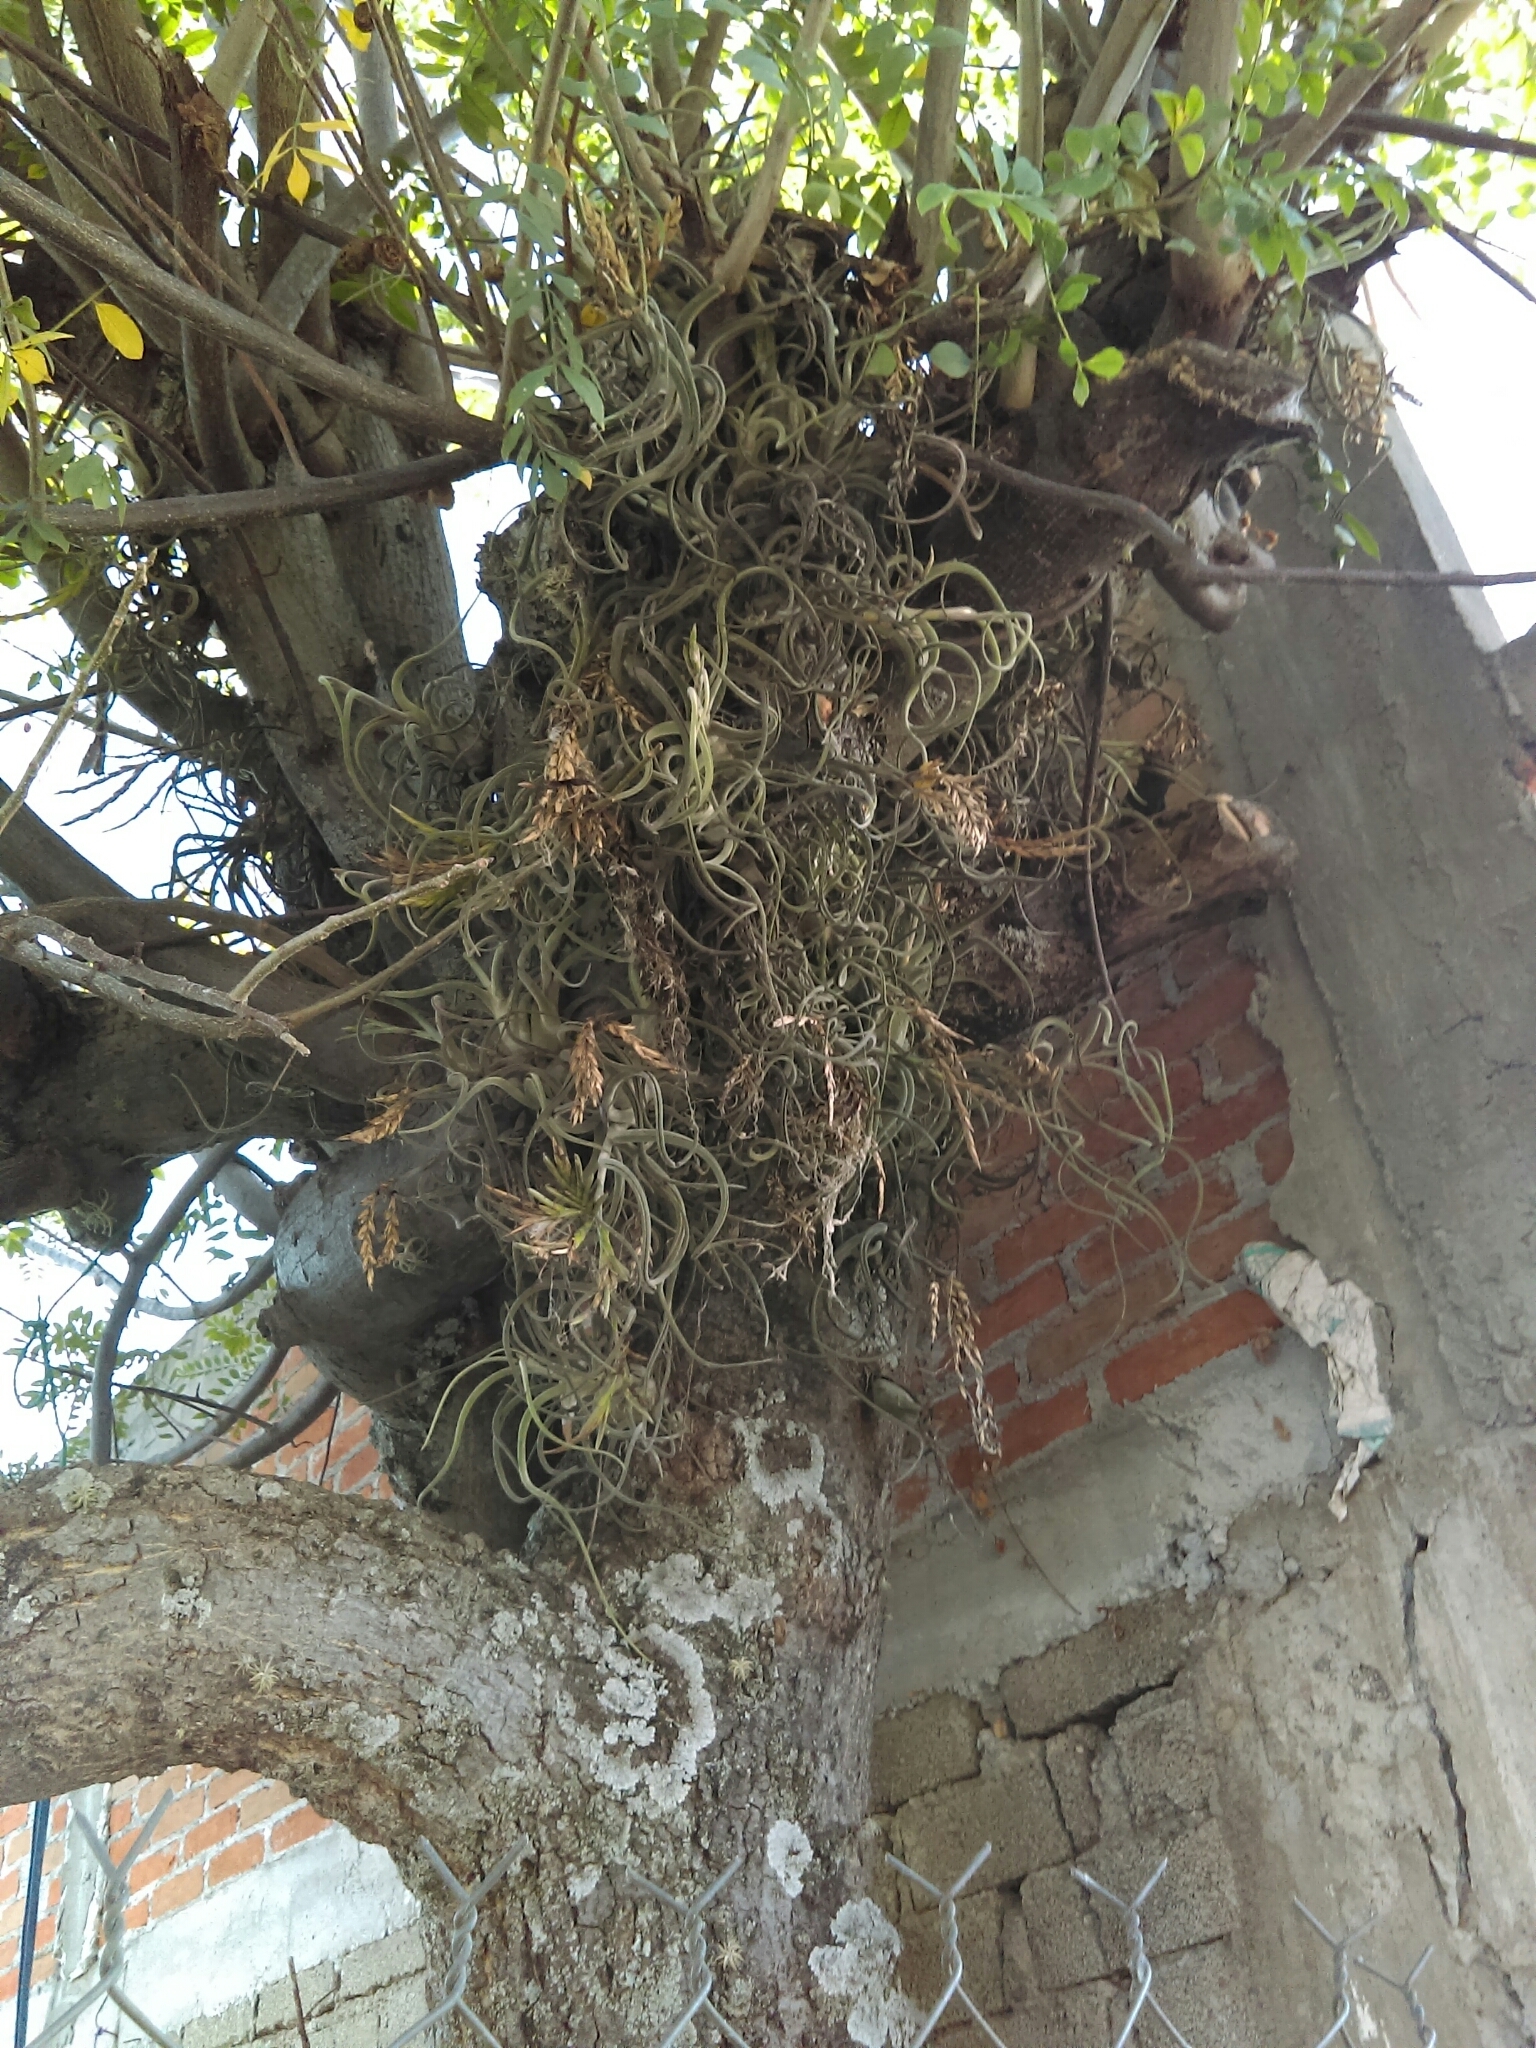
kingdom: Plantae
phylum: Tracheophyta
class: Liliopsida
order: Poales
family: Bromeliaceae
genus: Tillandsia
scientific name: Tillandsia caput-medusae
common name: Octopus plant
